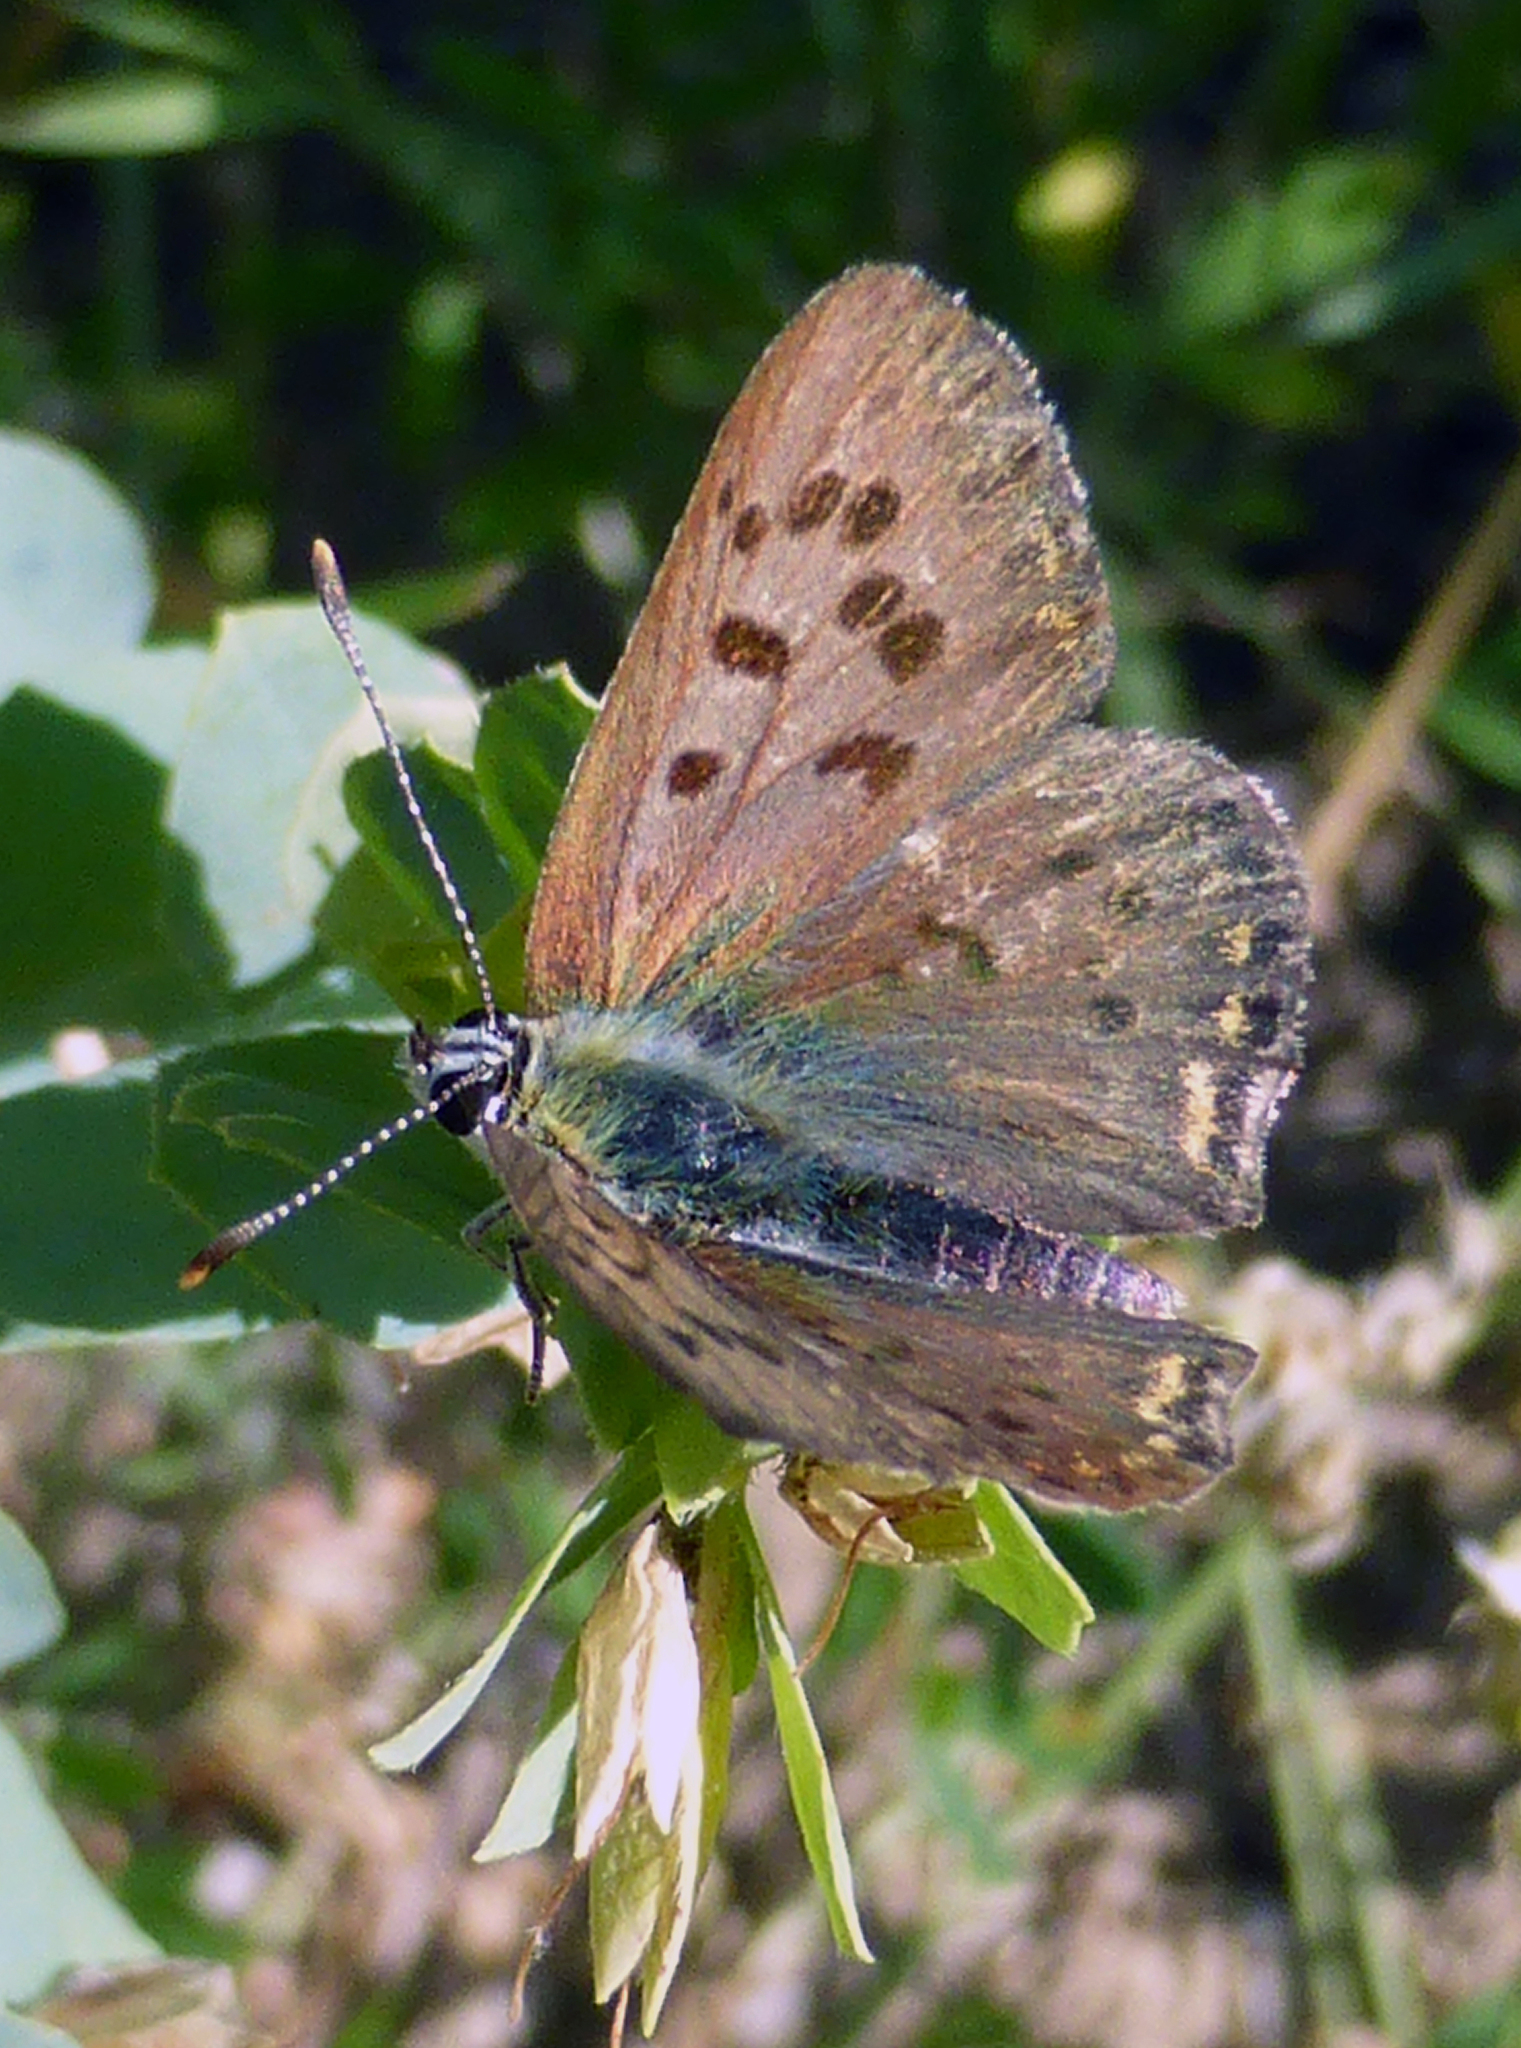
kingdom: Animalia
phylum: Arthropoda
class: Insecta
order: Lepidoptera
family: Lycaenidae
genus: Loweia
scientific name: Loweia tityrus
